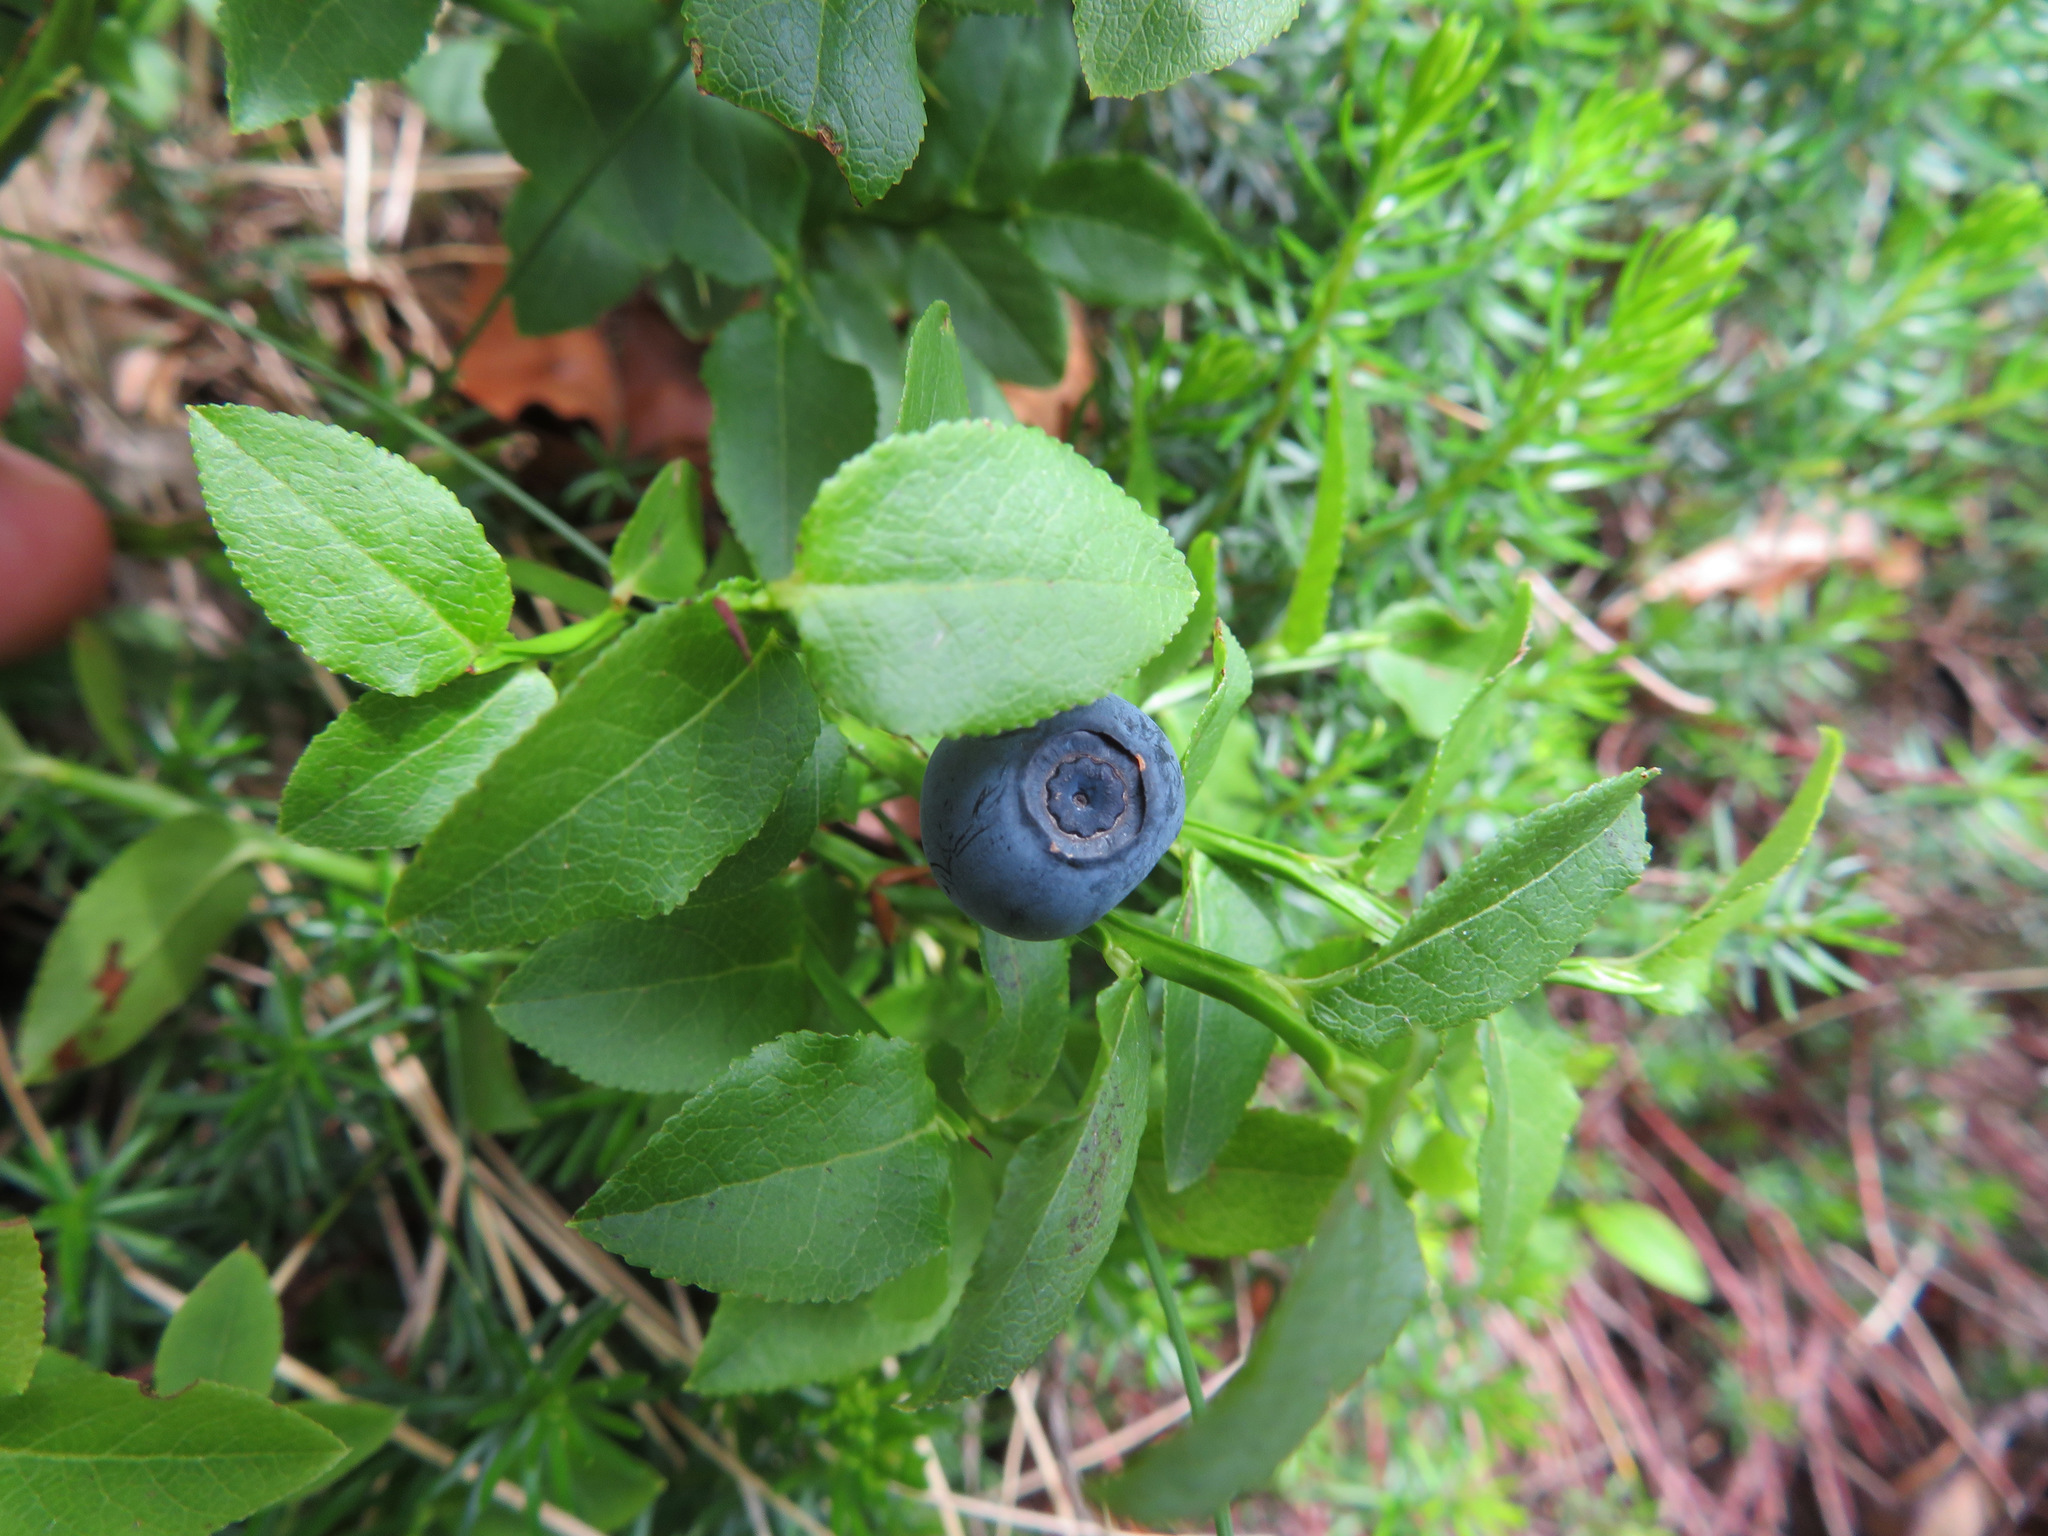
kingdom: Plantae
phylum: Tracheophyta
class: Magnoliopsida
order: Ericales
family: Ericaceae
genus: Vaccinium
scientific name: Vaccinium myrtillus
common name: Bilberry
